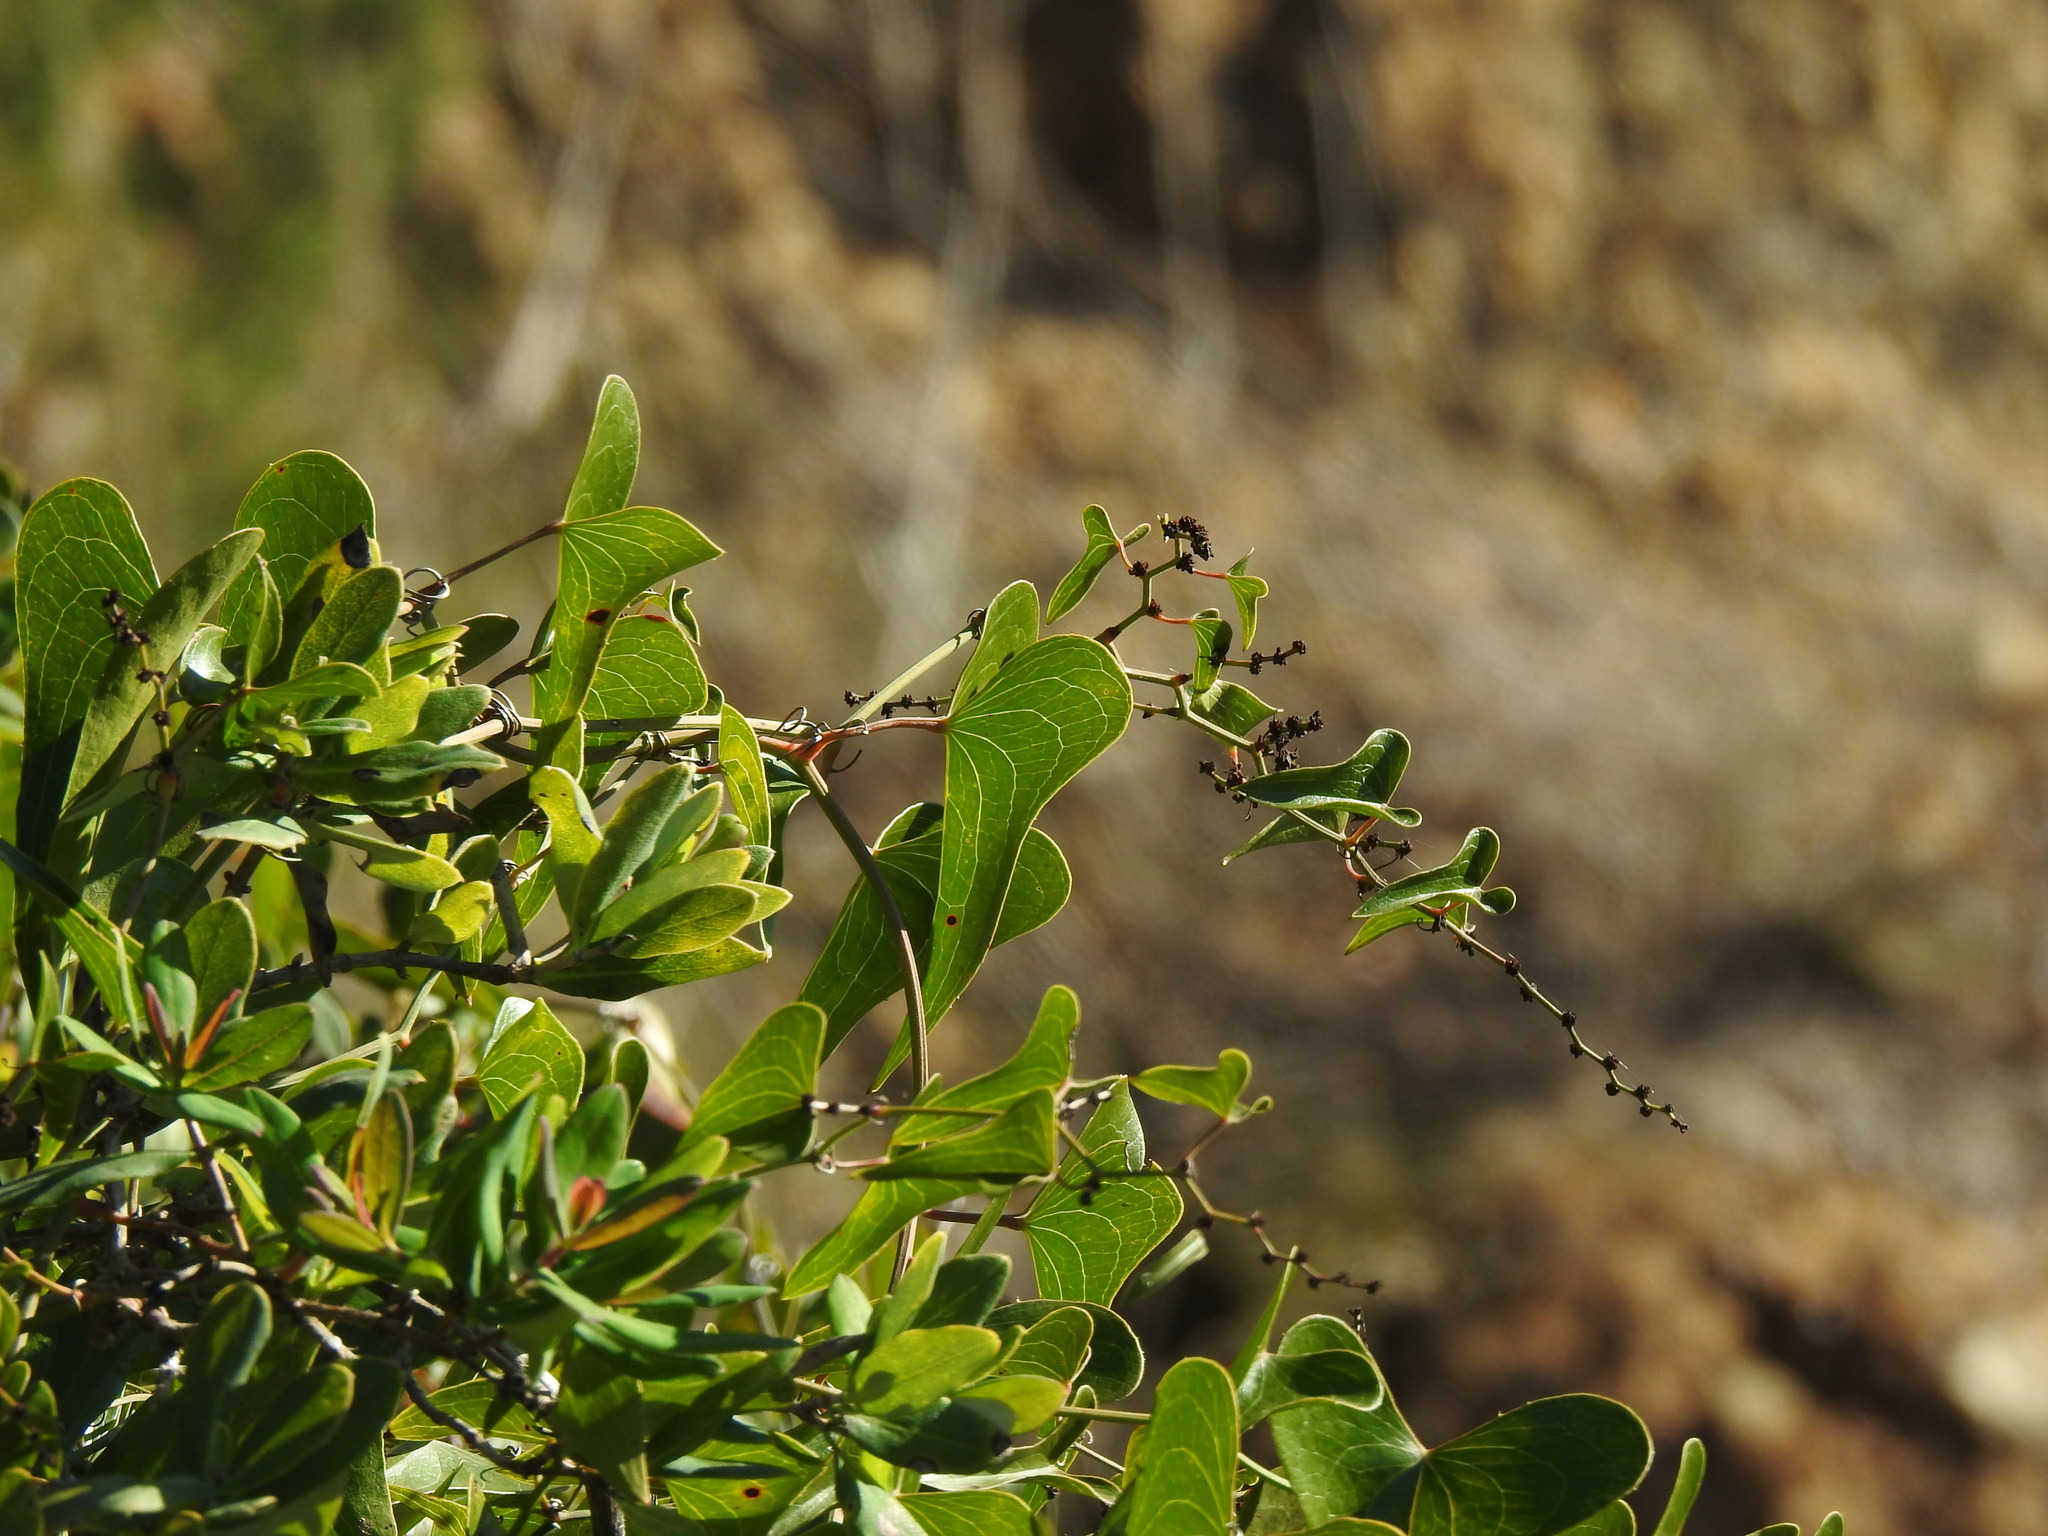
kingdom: Plantae
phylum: Tracheophyta
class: Liliopsida
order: Liliales
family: Smilacaceae
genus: Smilax
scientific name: Smilax aspera
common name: Common smilax
